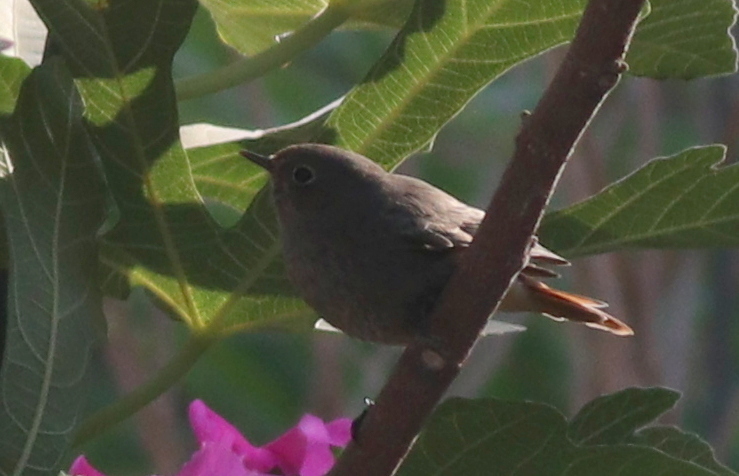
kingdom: Animalia
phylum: Chordata
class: Aves
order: Passeriformes
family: Muscicapidae
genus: Phoenicurus
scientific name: Phoenicurus ochruros
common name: Black redstart
